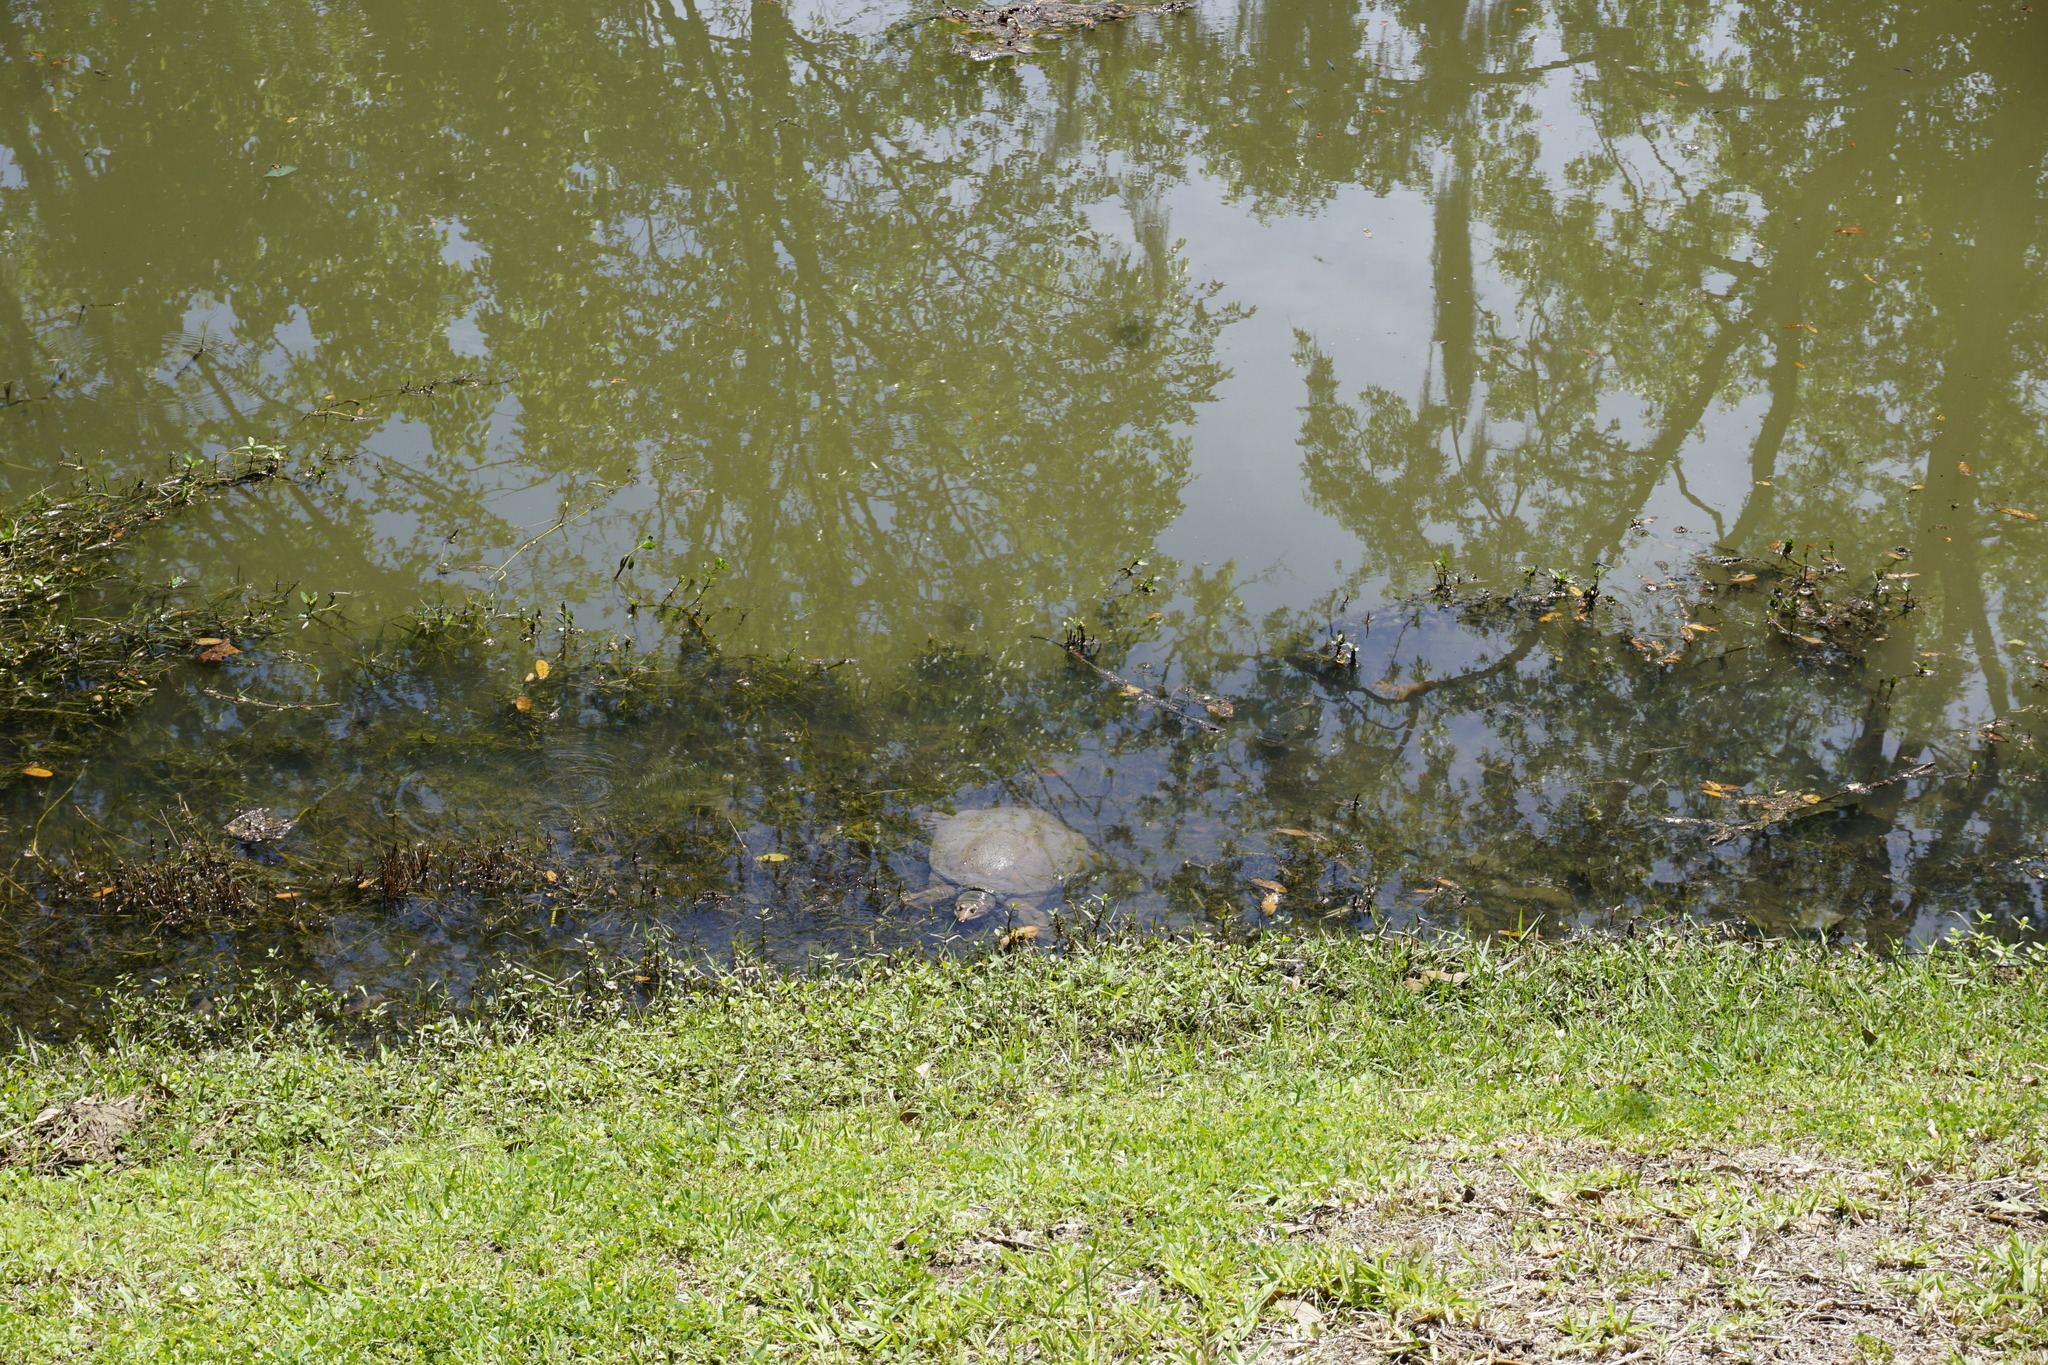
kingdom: Animalia
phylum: Chordata
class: Testudines
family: Trionychidae
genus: Apalone
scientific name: Apalone ferox
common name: Florida softshell turtle
